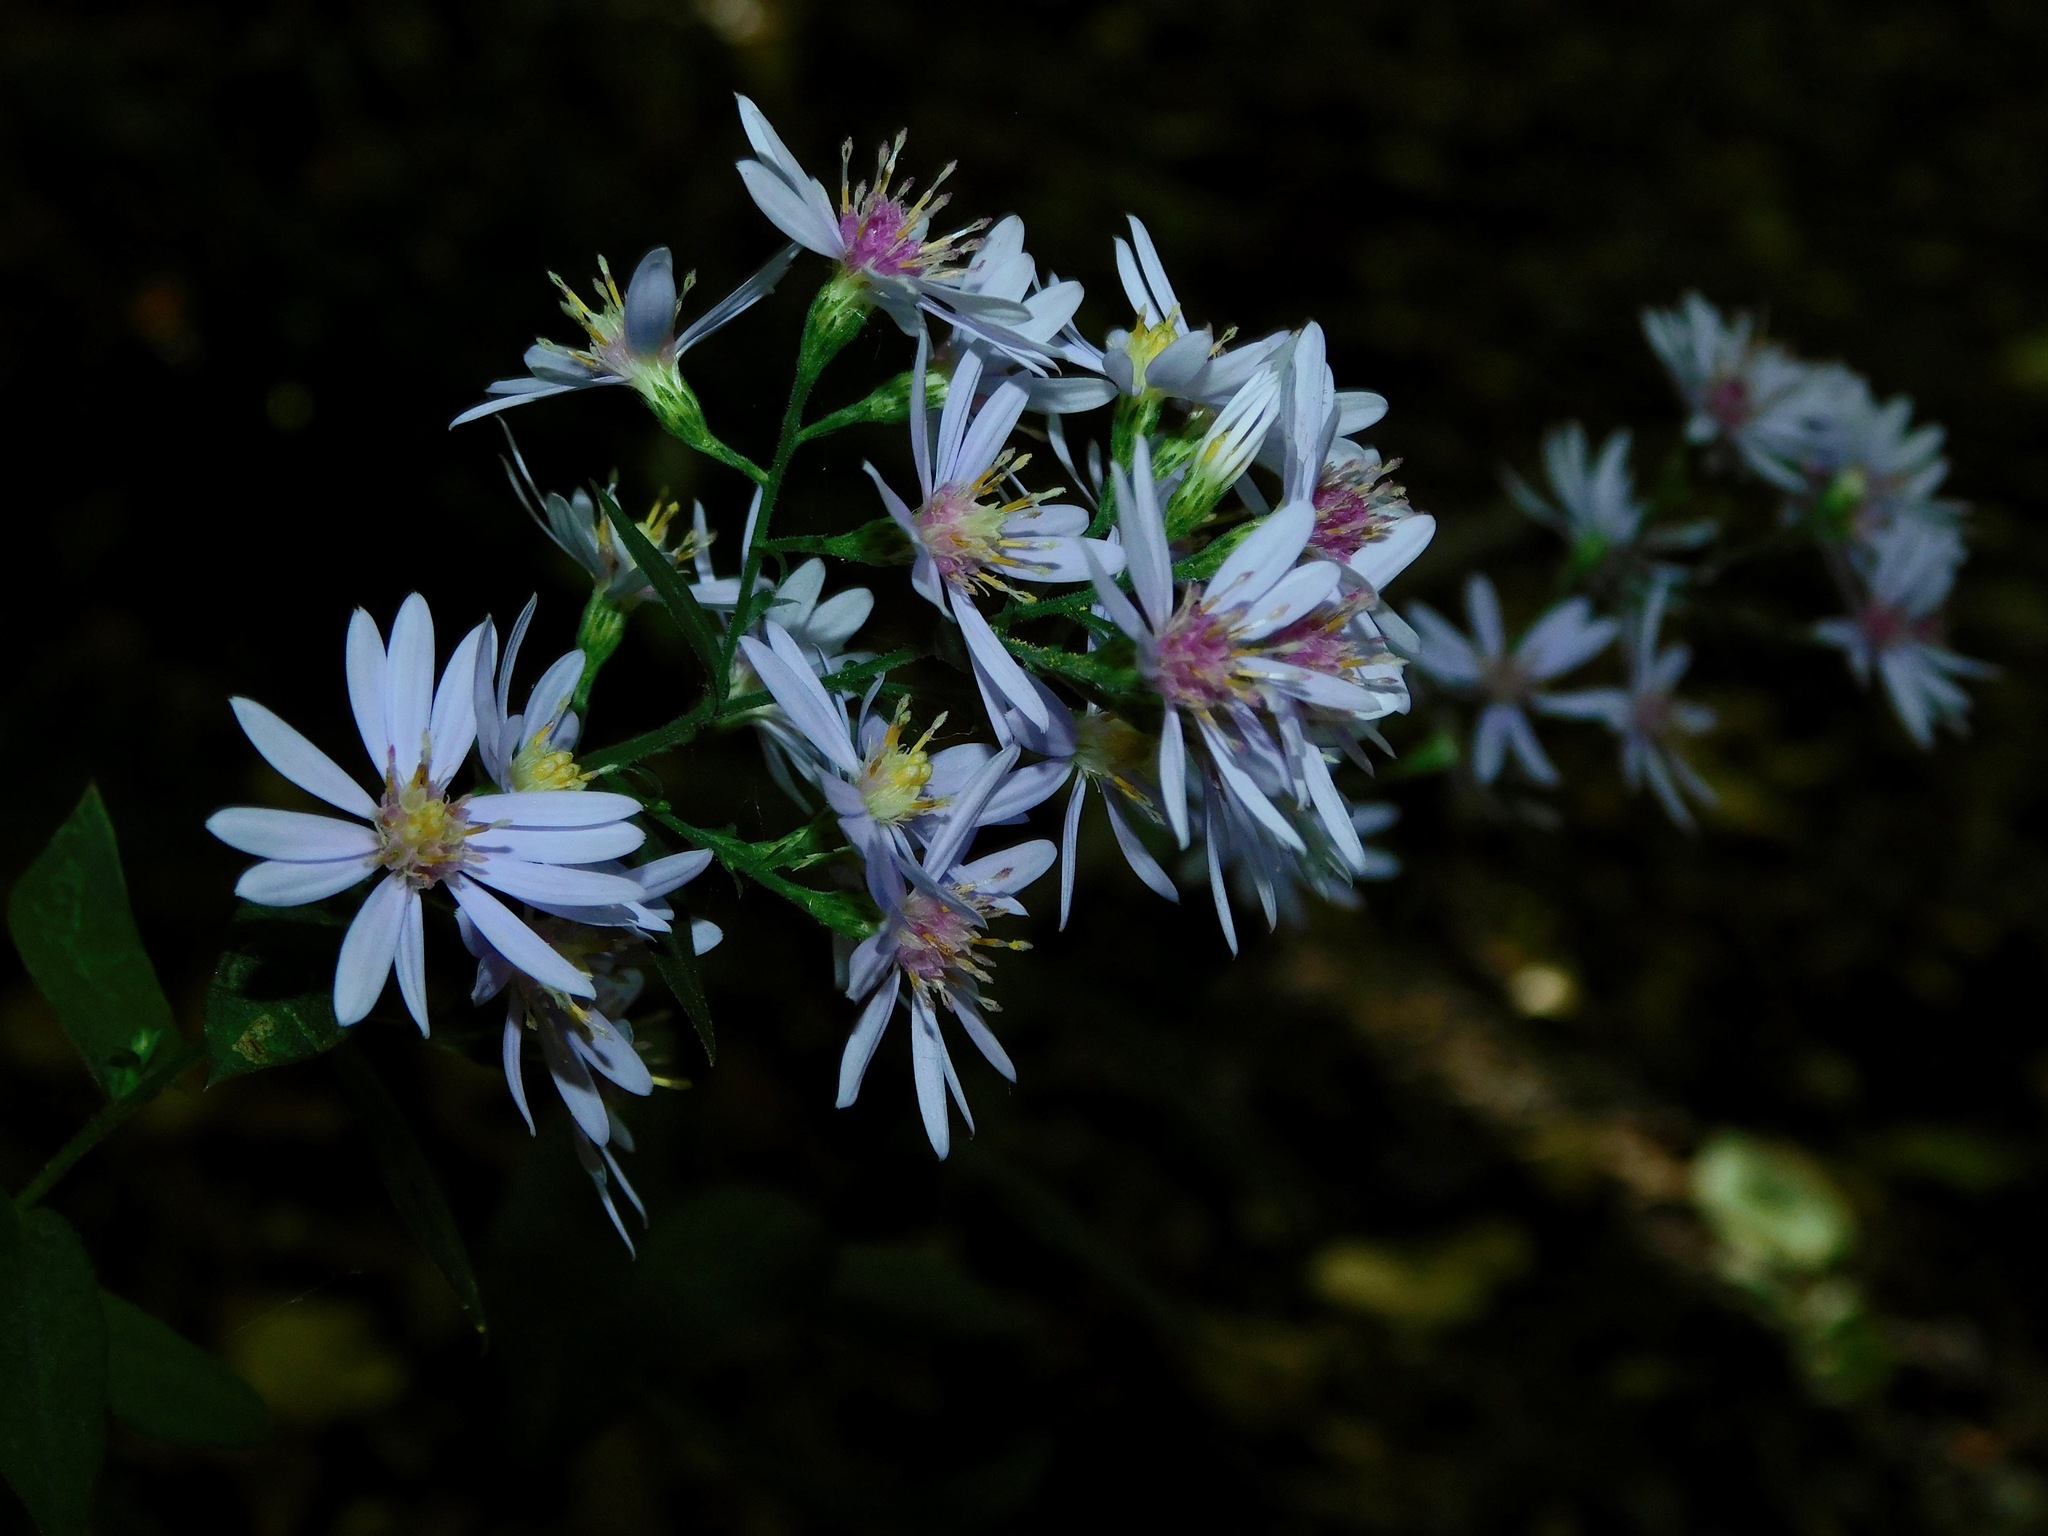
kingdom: Plantae
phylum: Tracheophyta
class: Magnoliopsida
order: Asterales
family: Asteraceae
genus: Symphyotrichum
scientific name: Symphyotrichum undulatum
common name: Clasping heart-leaf aster
